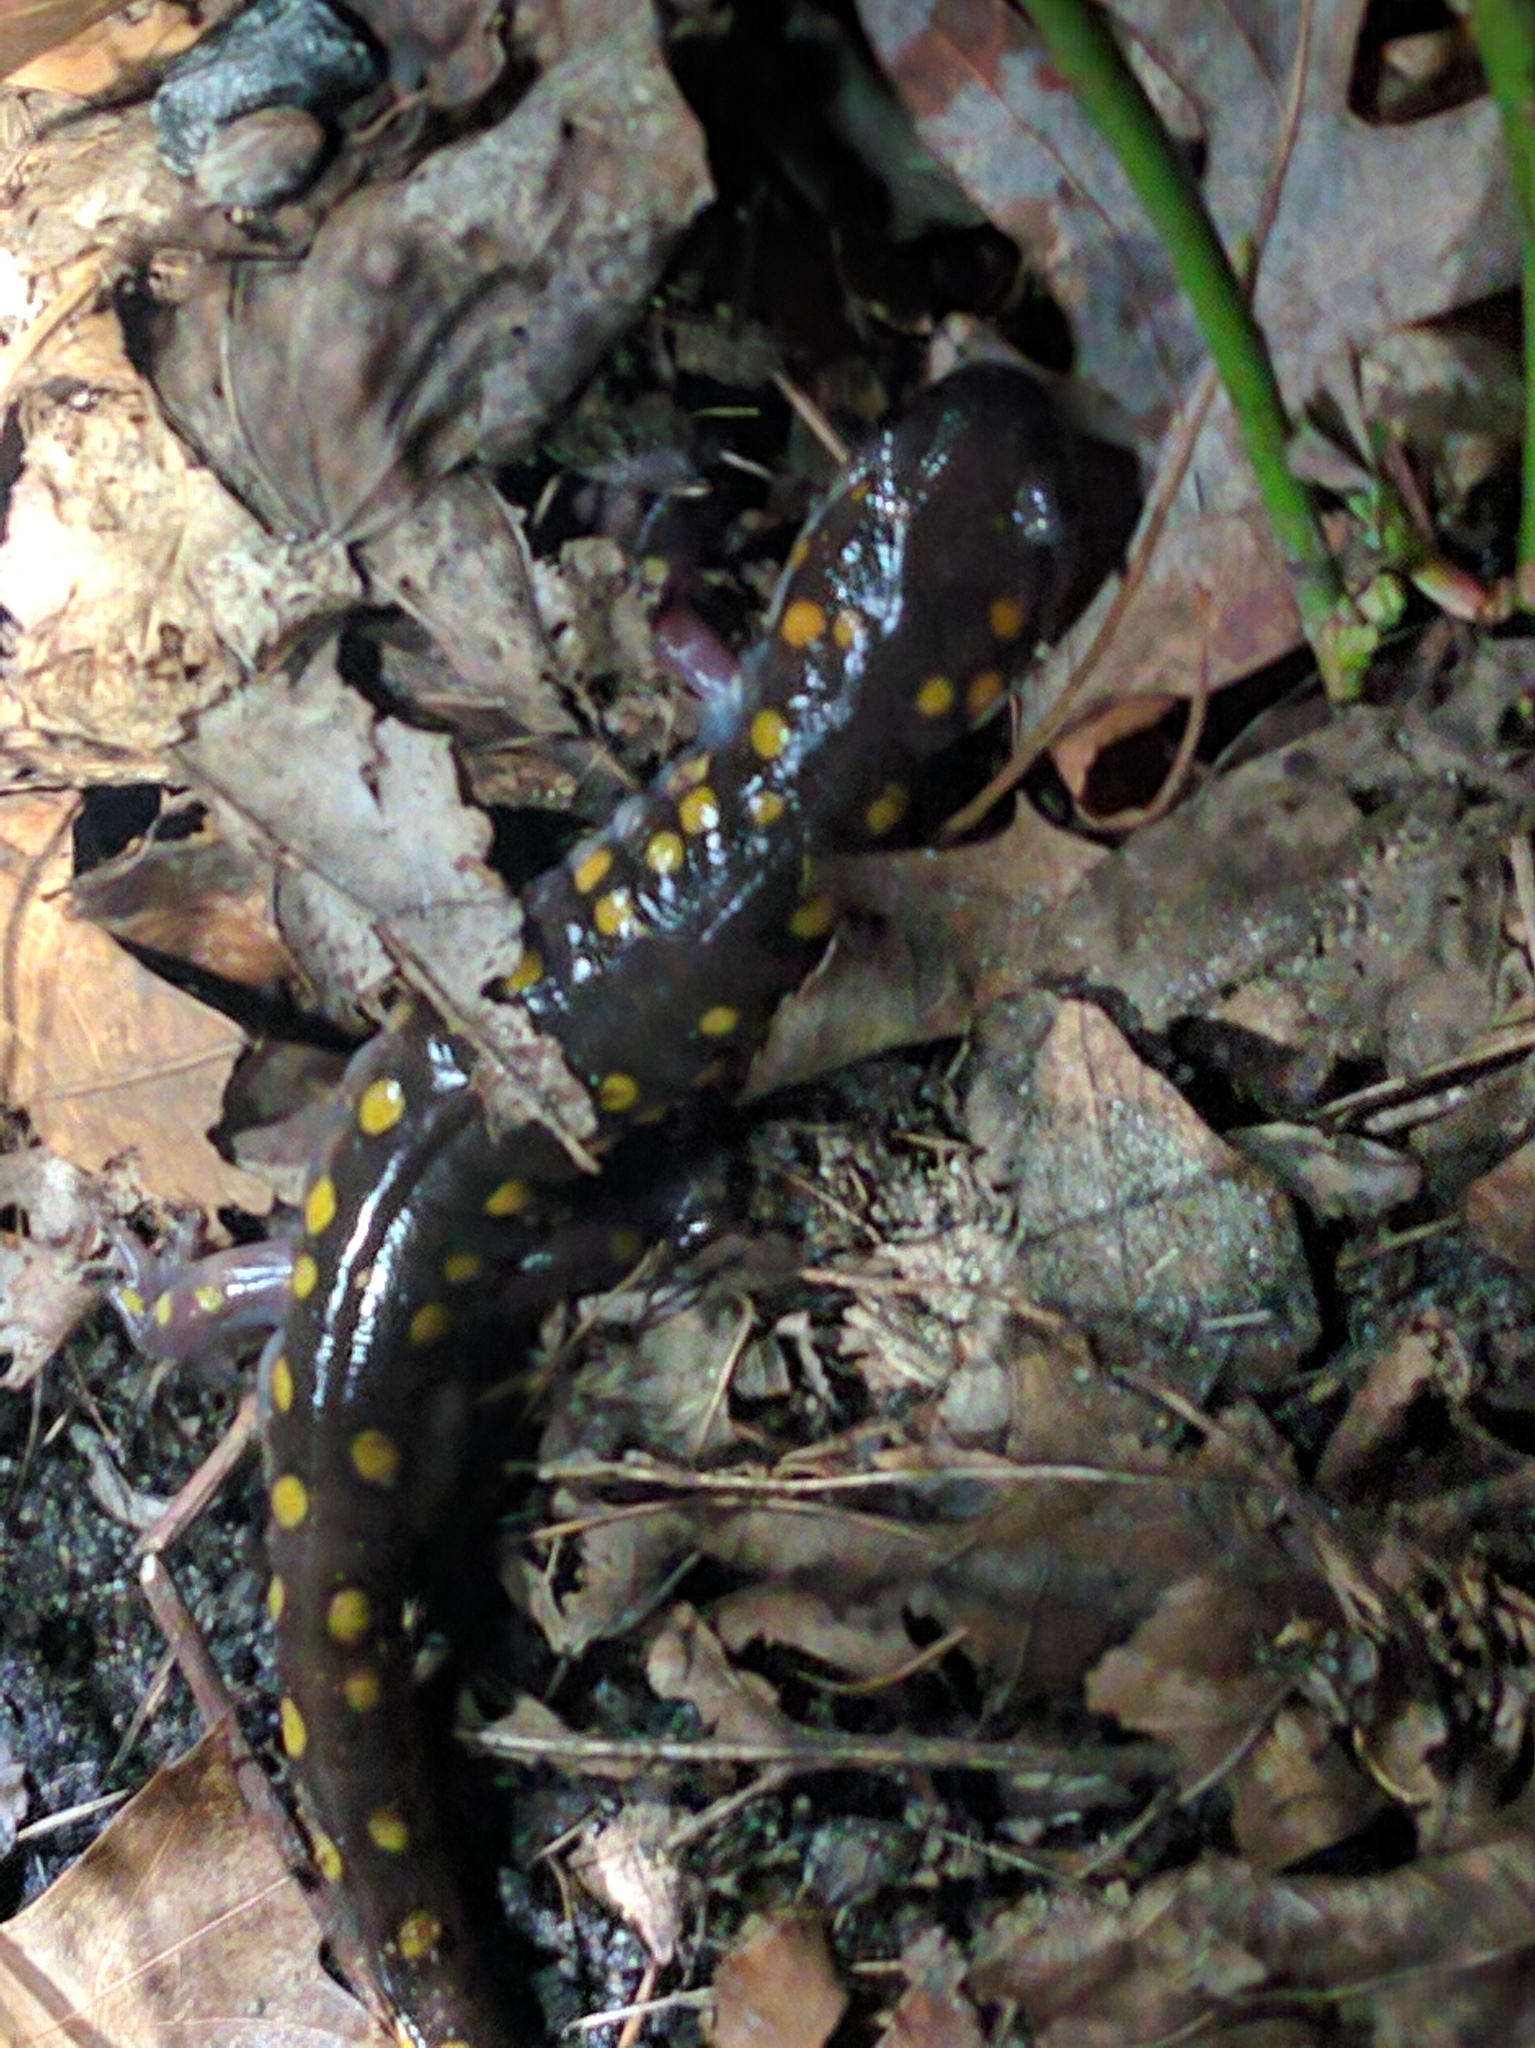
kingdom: Animalia
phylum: Chordata
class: Amphibia
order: Caudata
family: Ambystomatidae
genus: Ambystoma
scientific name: Ambystoma maculatum
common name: Spotted salamander
